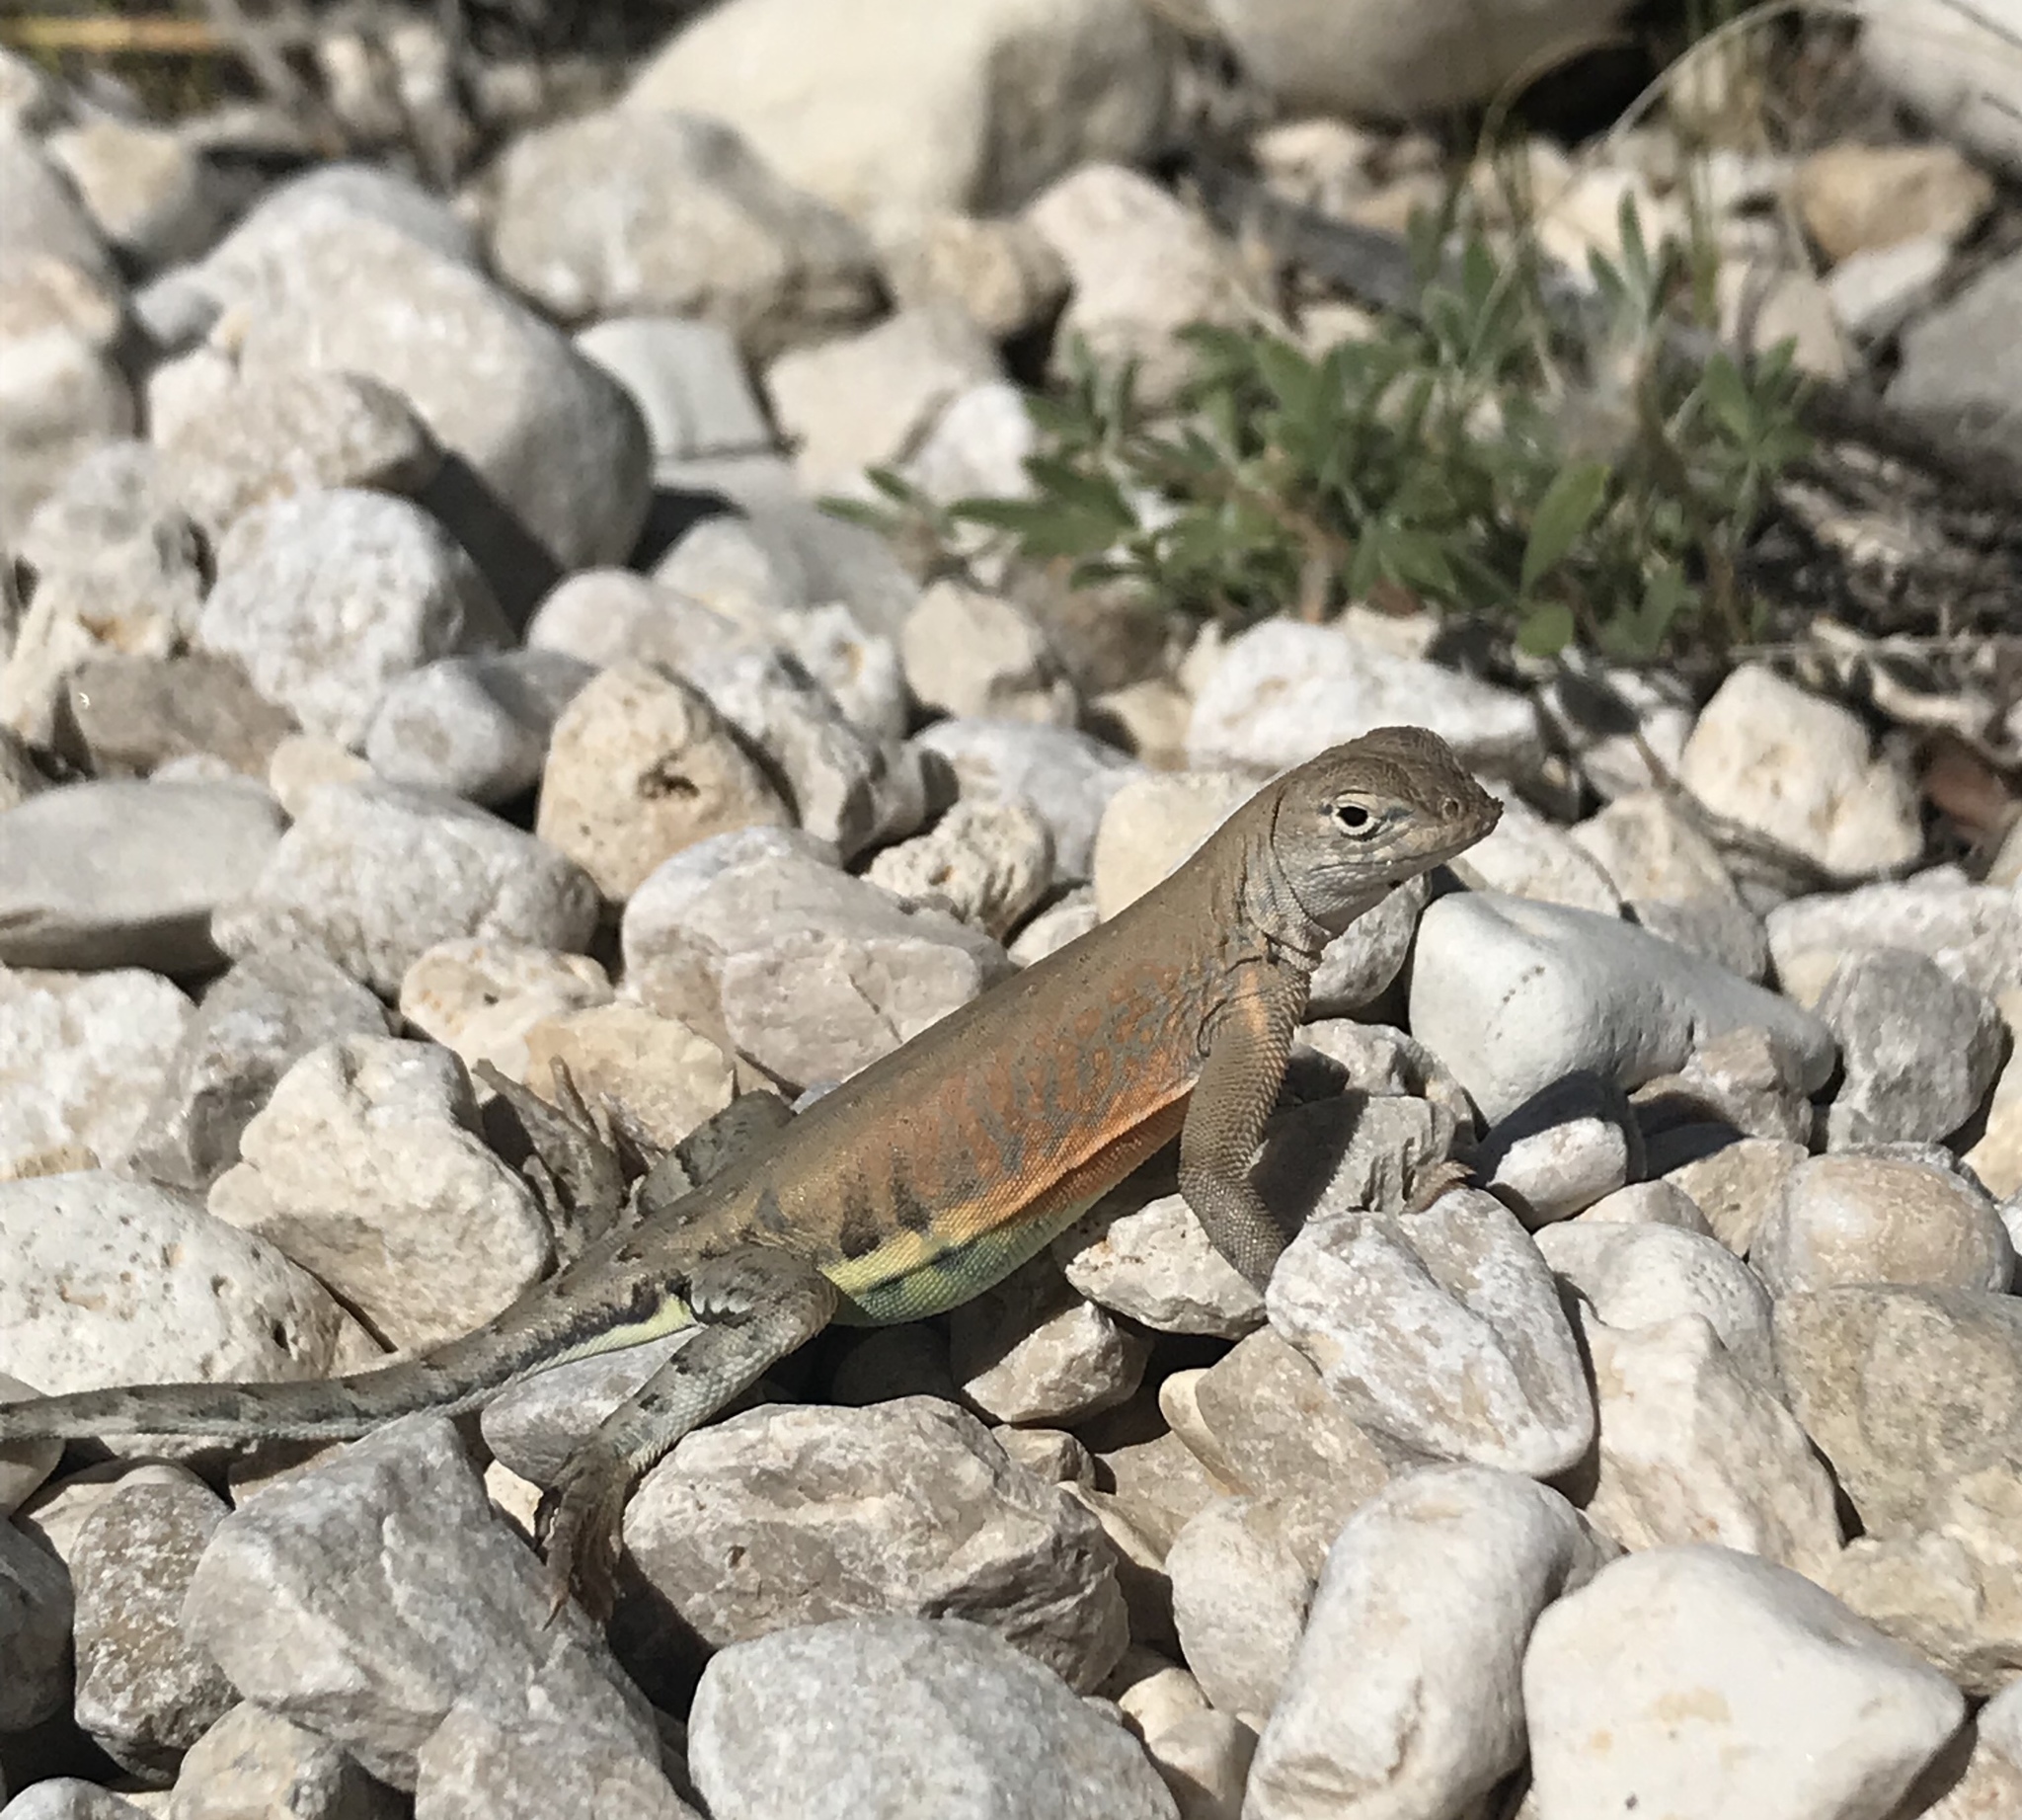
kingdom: Animalia
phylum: Chordata
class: Squamata
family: Phrynosomatidae
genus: Cophosaurus
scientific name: Cophosaurus texanus
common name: Greater earless lizard
